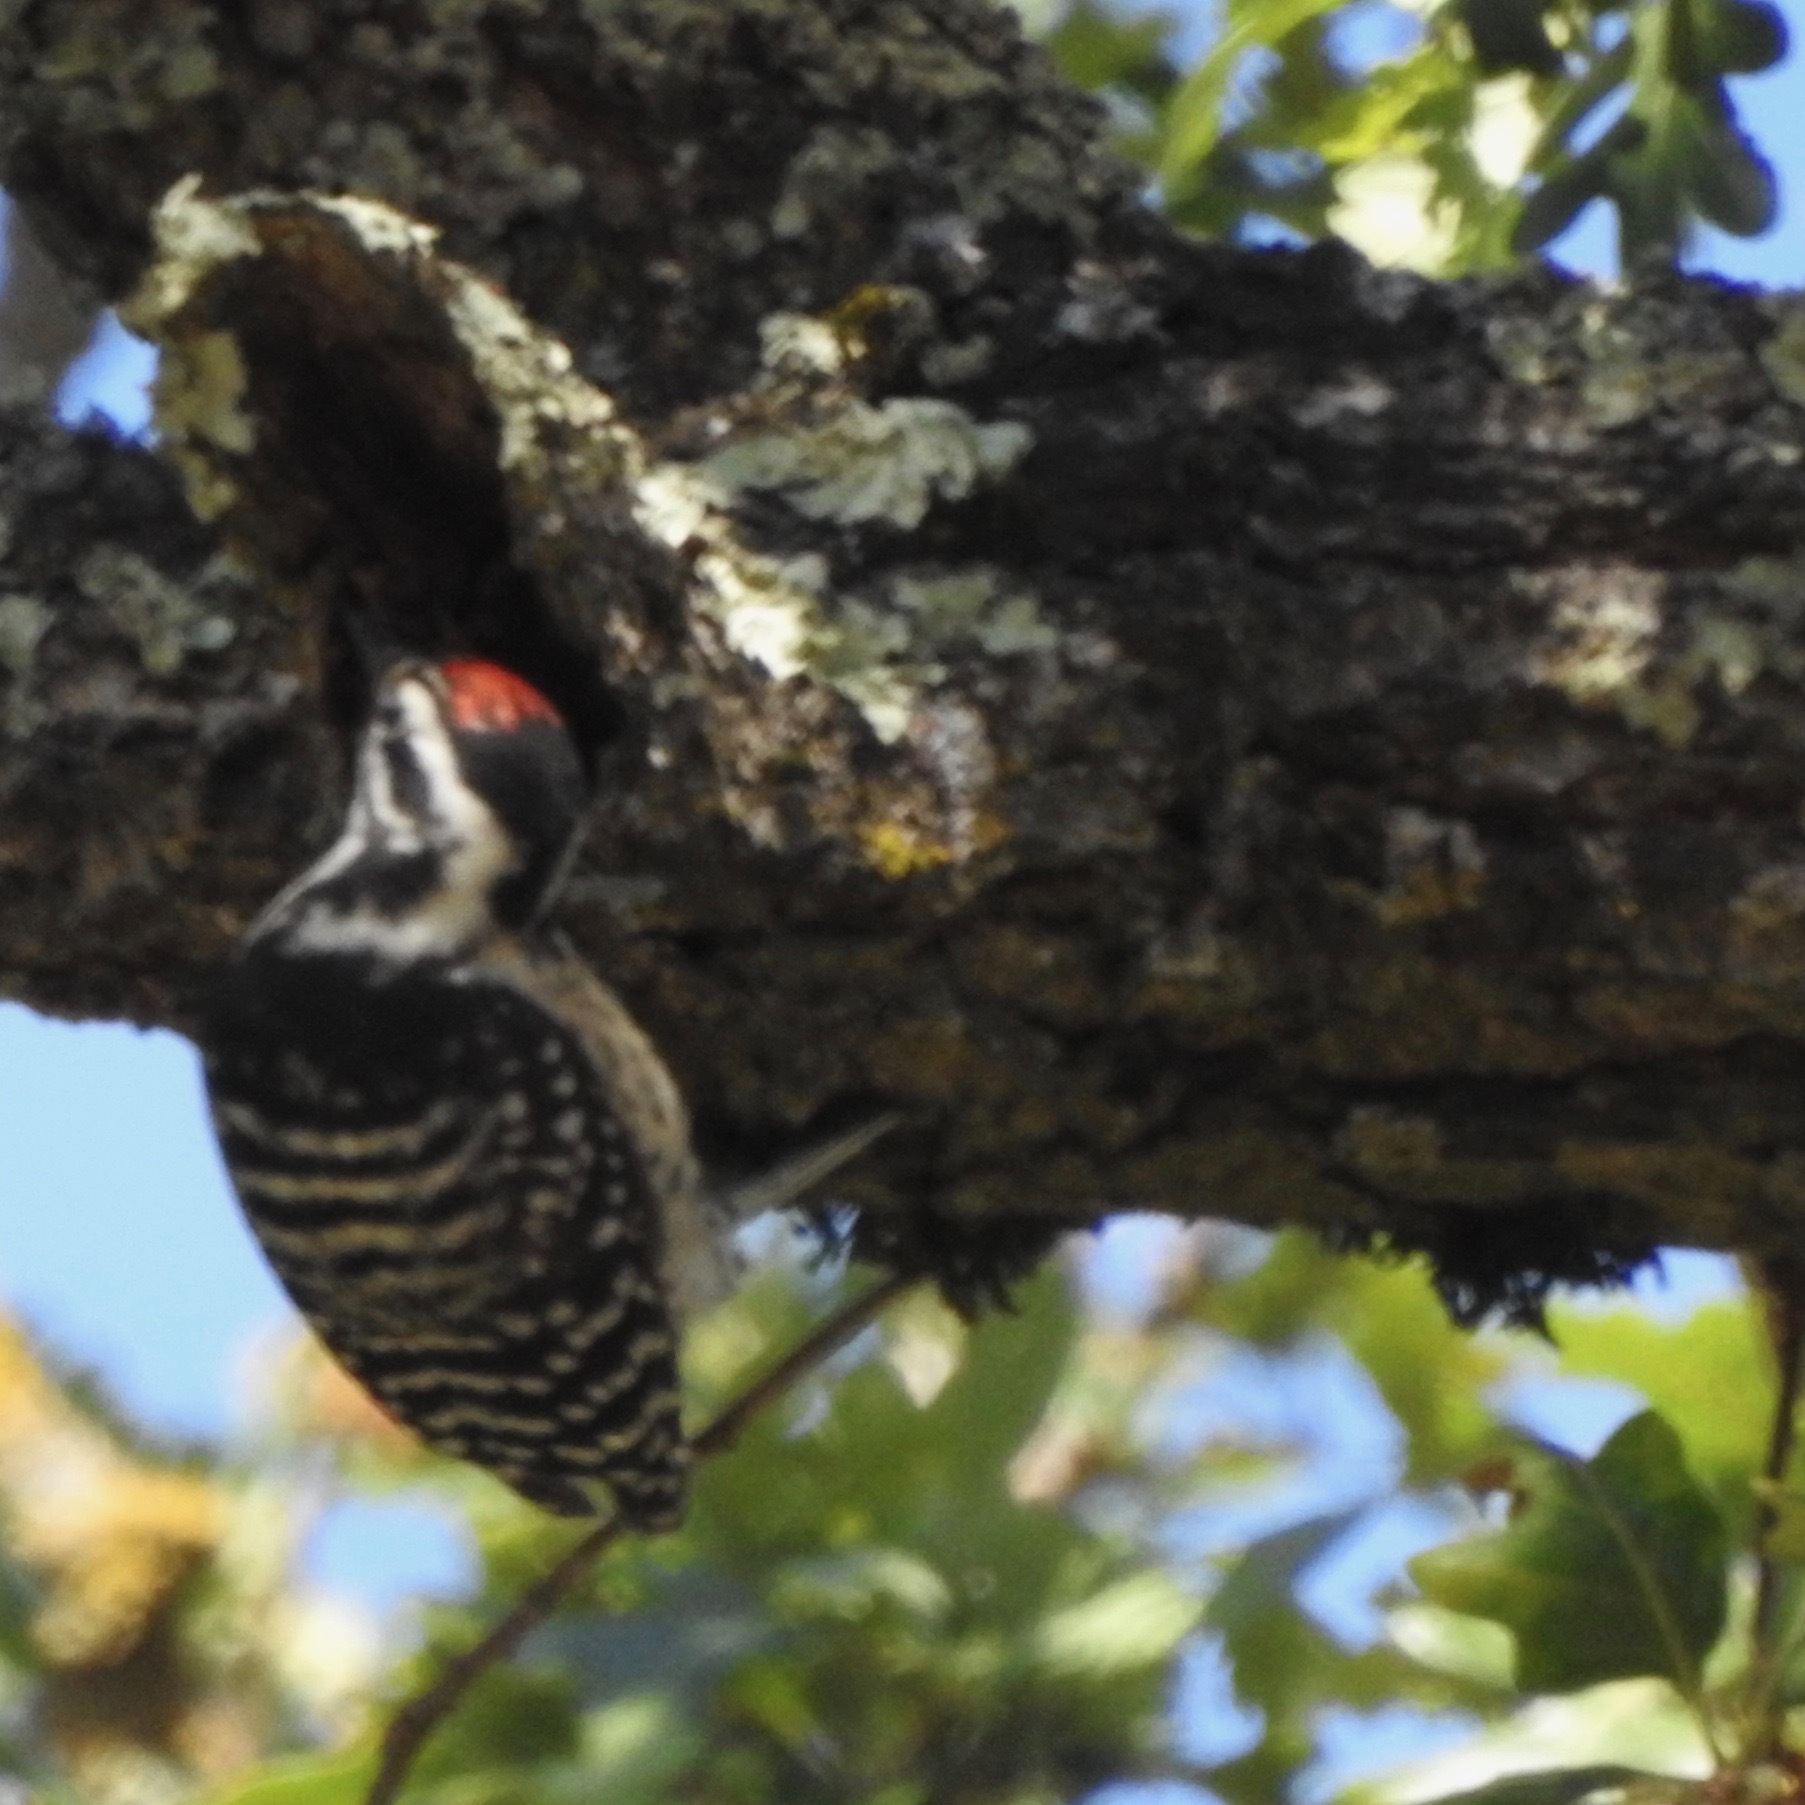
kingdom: Animalia
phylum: Chordata
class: Aves
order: Piciformes
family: Picidae
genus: Dryobates
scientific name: Dryobates nuttallii
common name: Nuttall's woodpecker
